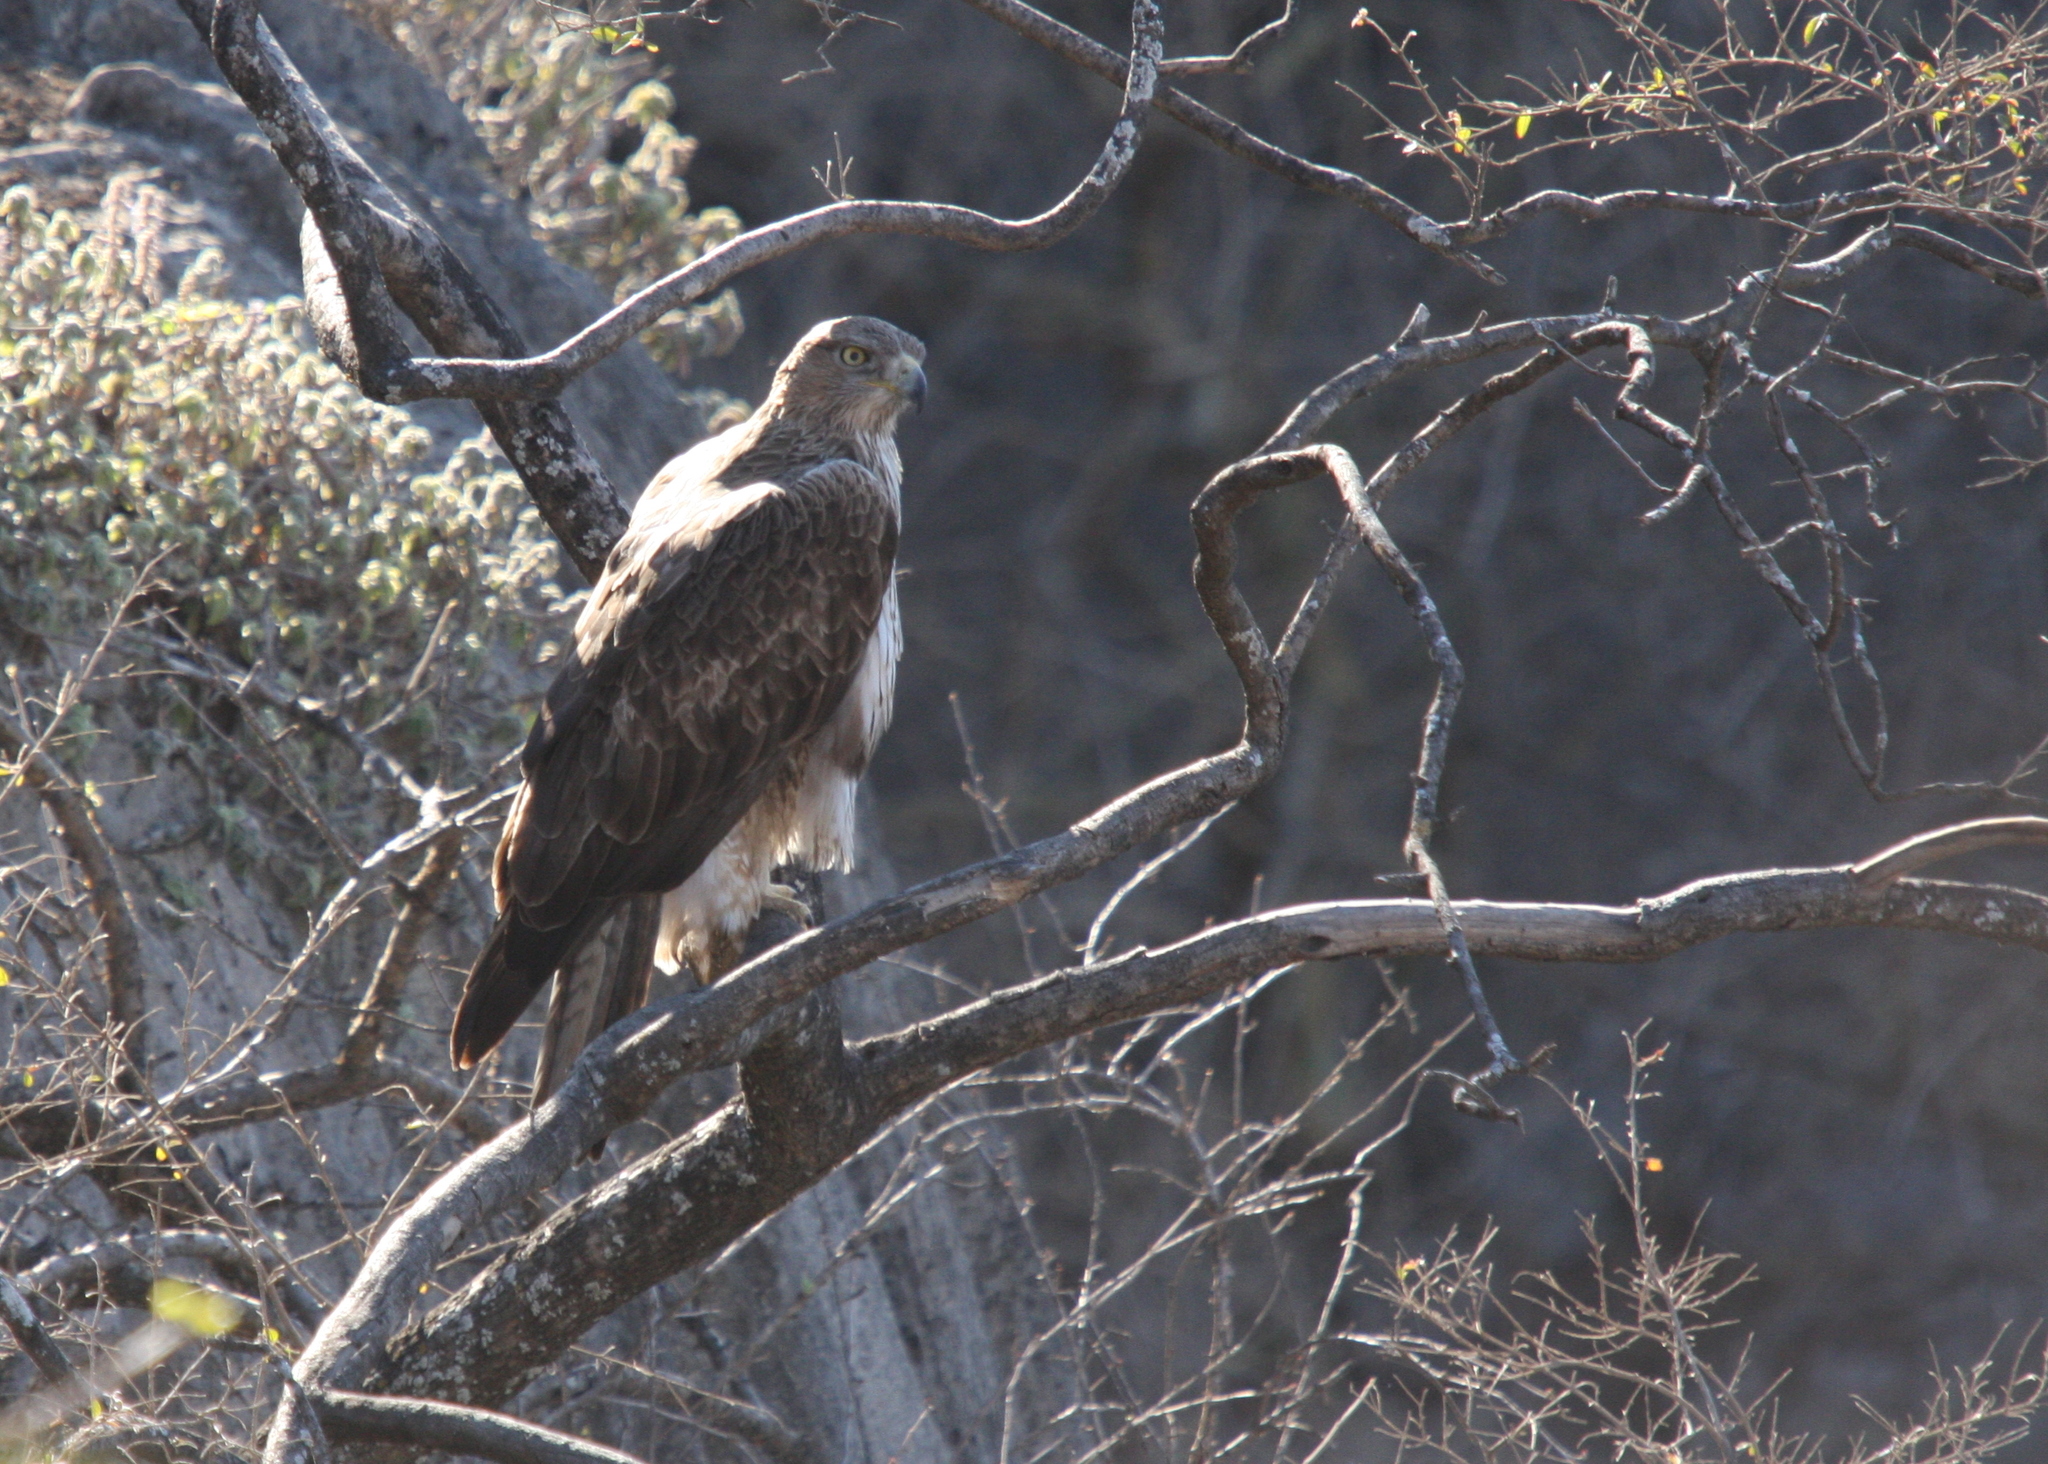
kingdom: Animalia
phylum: Chordata
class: Aves
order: Accipitriformes
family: Accipitridae
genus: Aquila
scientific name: Aquila fasciata
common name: Bonelli's eagle
